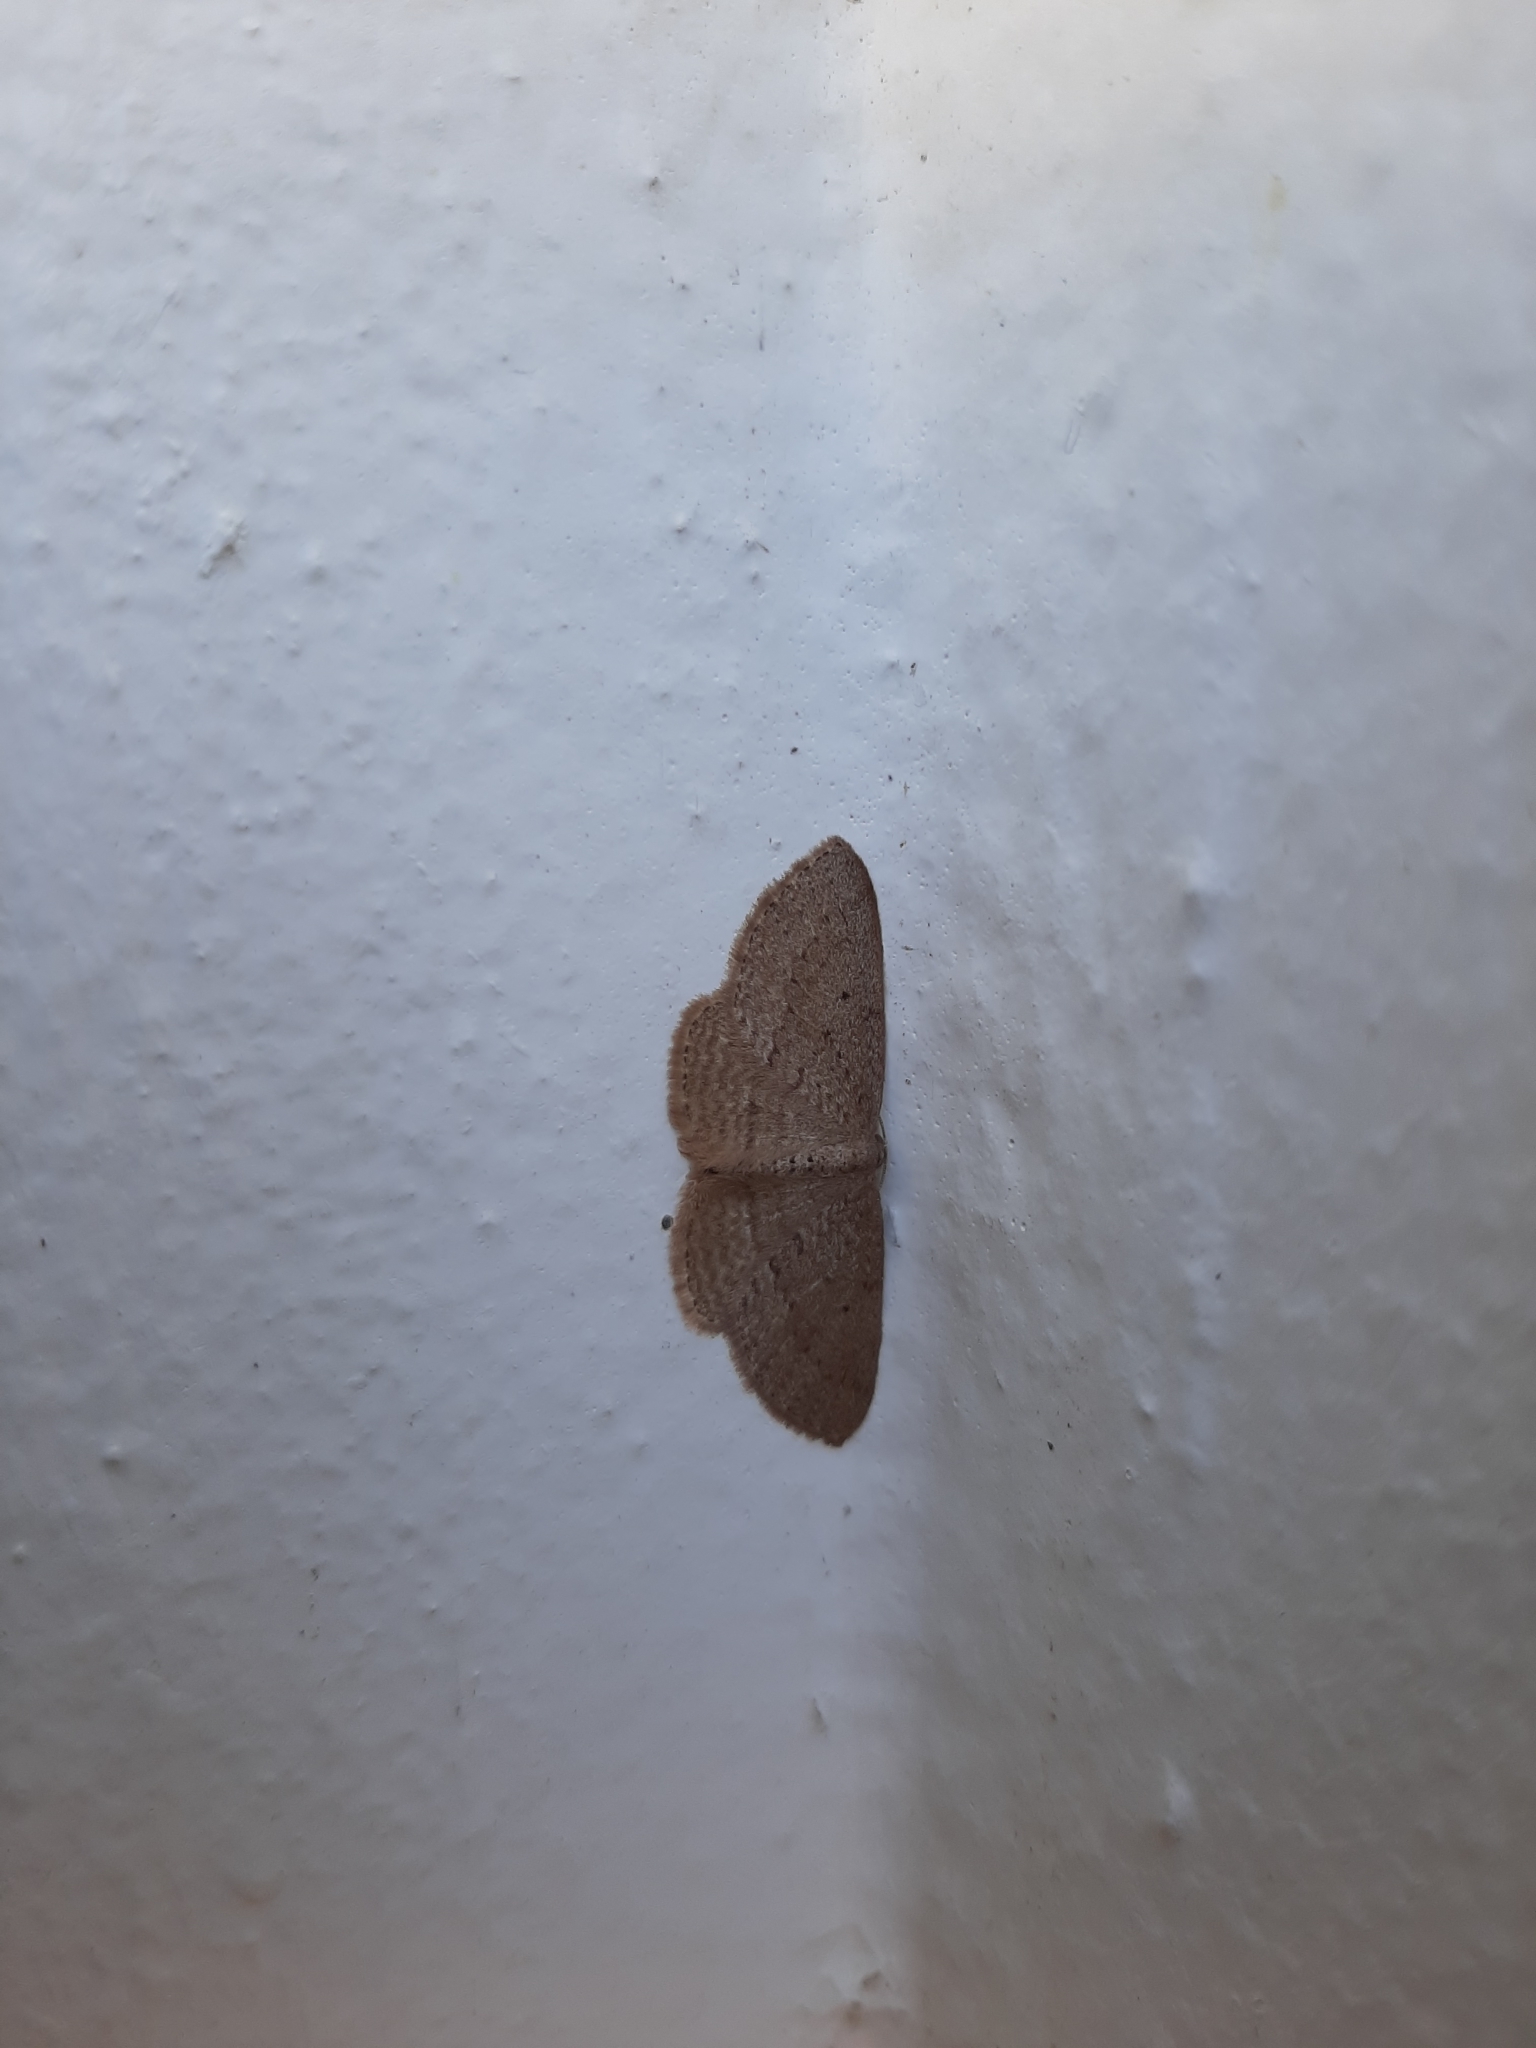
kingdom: Animalia
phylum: Arthropoda
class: Insecta
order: Lepidoptera
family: Geometridae
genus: Poecilasthena
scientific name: Poecilasthena schistaria
